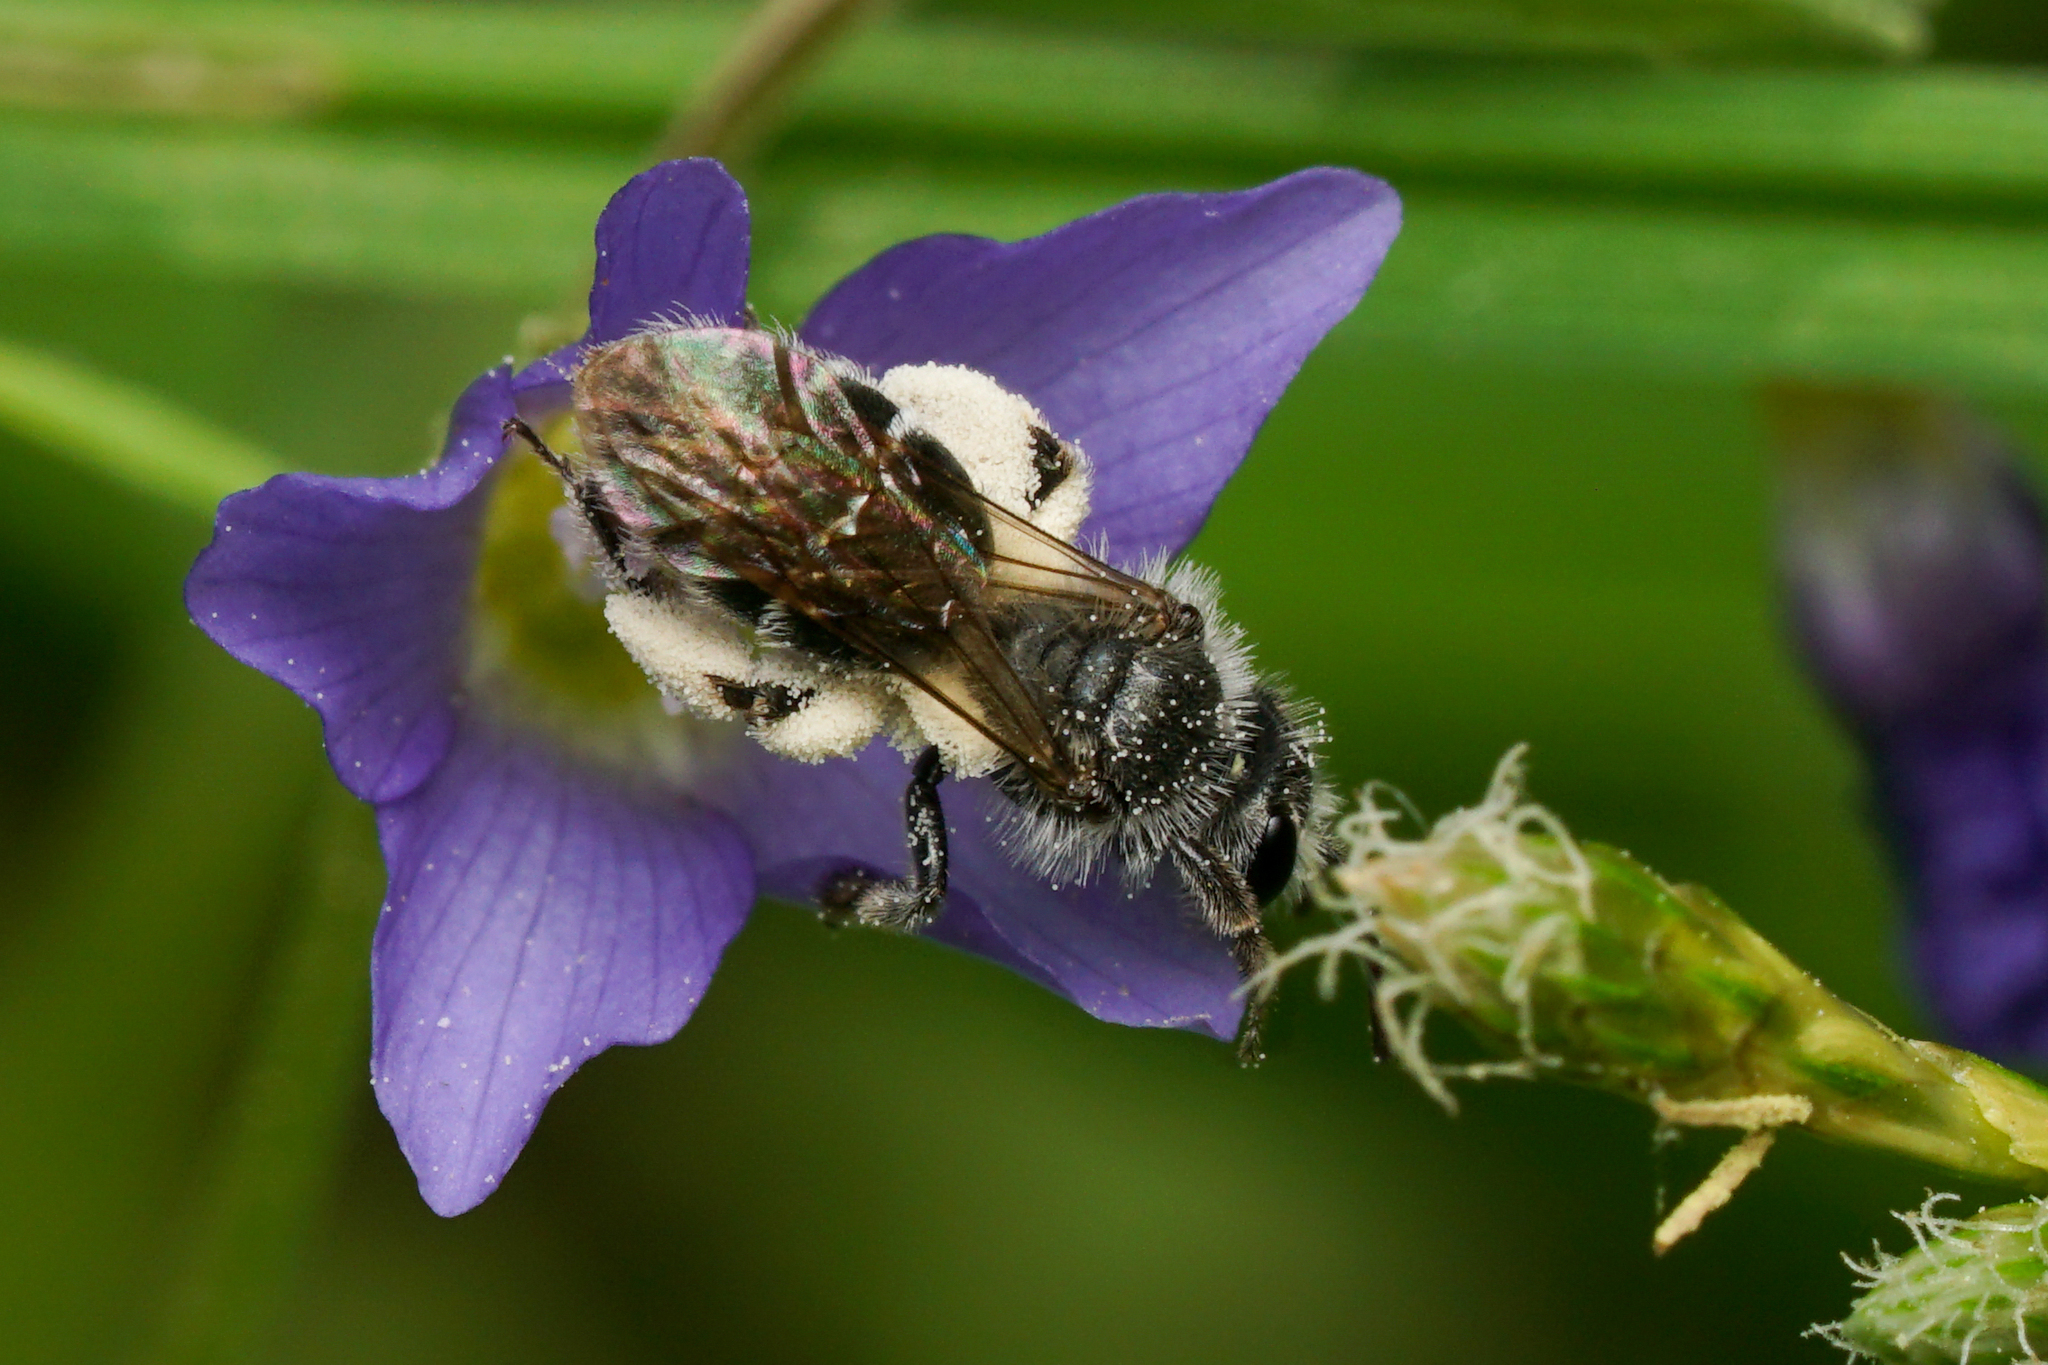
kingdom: Animalia
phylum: Arthropoda
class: Insecta
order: Hymenoptera
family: Andrenidae
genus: Andrena
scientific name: Andrena polemonii
